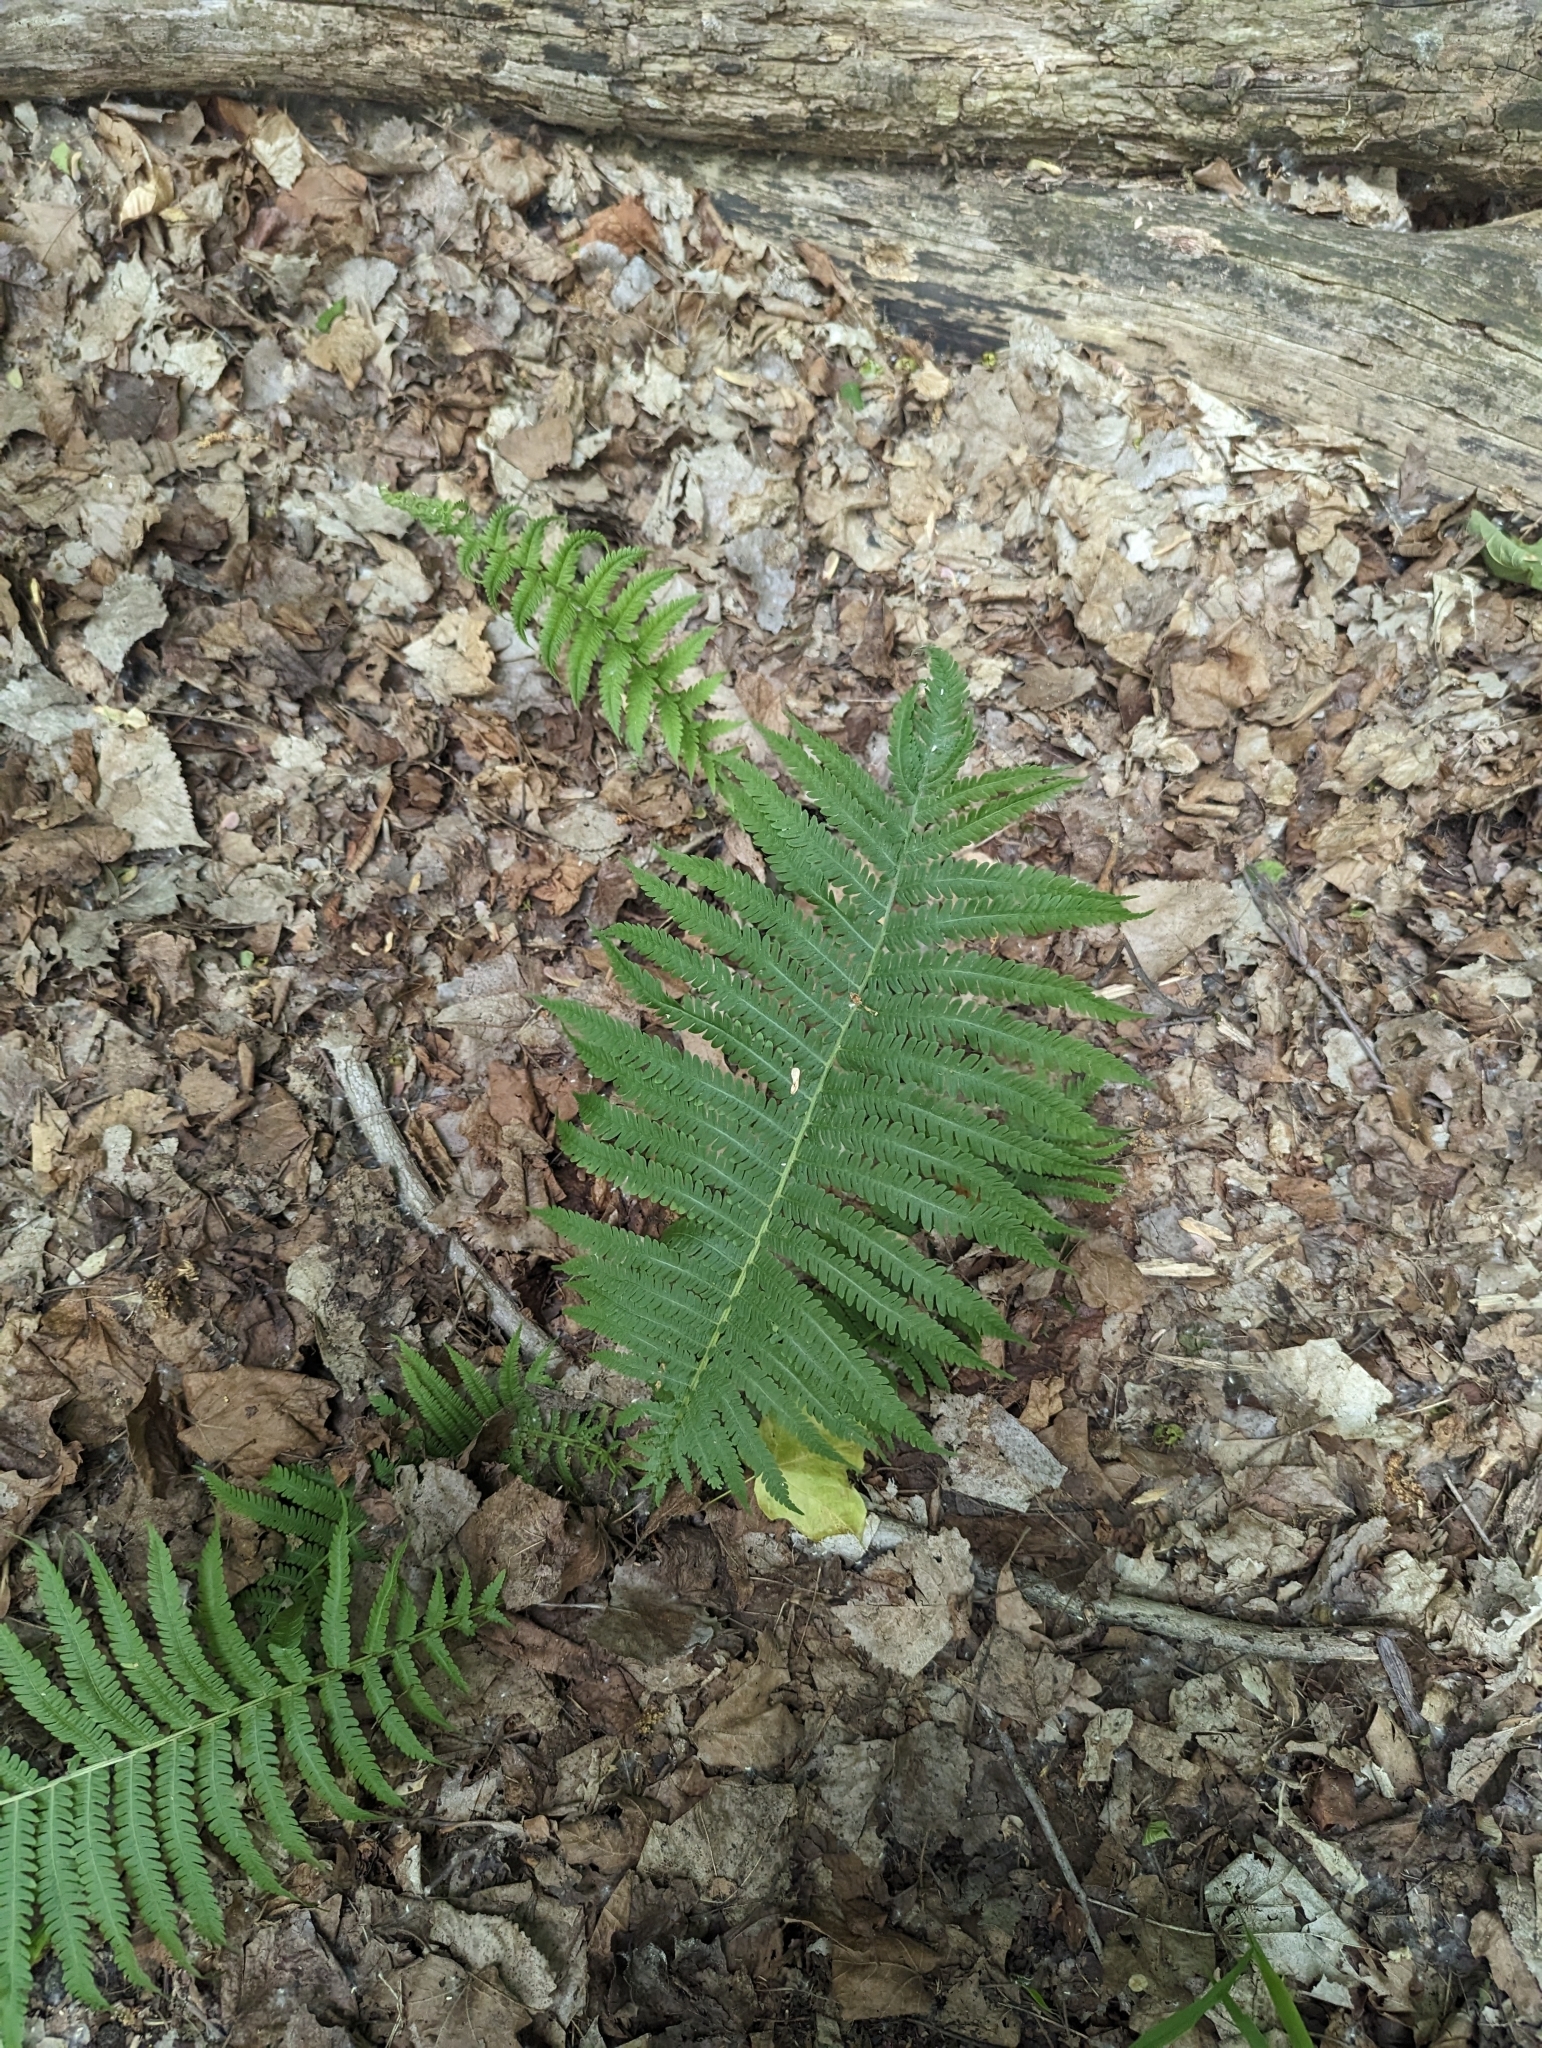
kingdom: Plantae
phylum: Tracheophyta
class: Polypodiopsida
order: Polypodiales
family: Onocleaceae
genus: Matteuccia
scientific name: Matteuccia struthiopteris
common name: Ostrich fern
